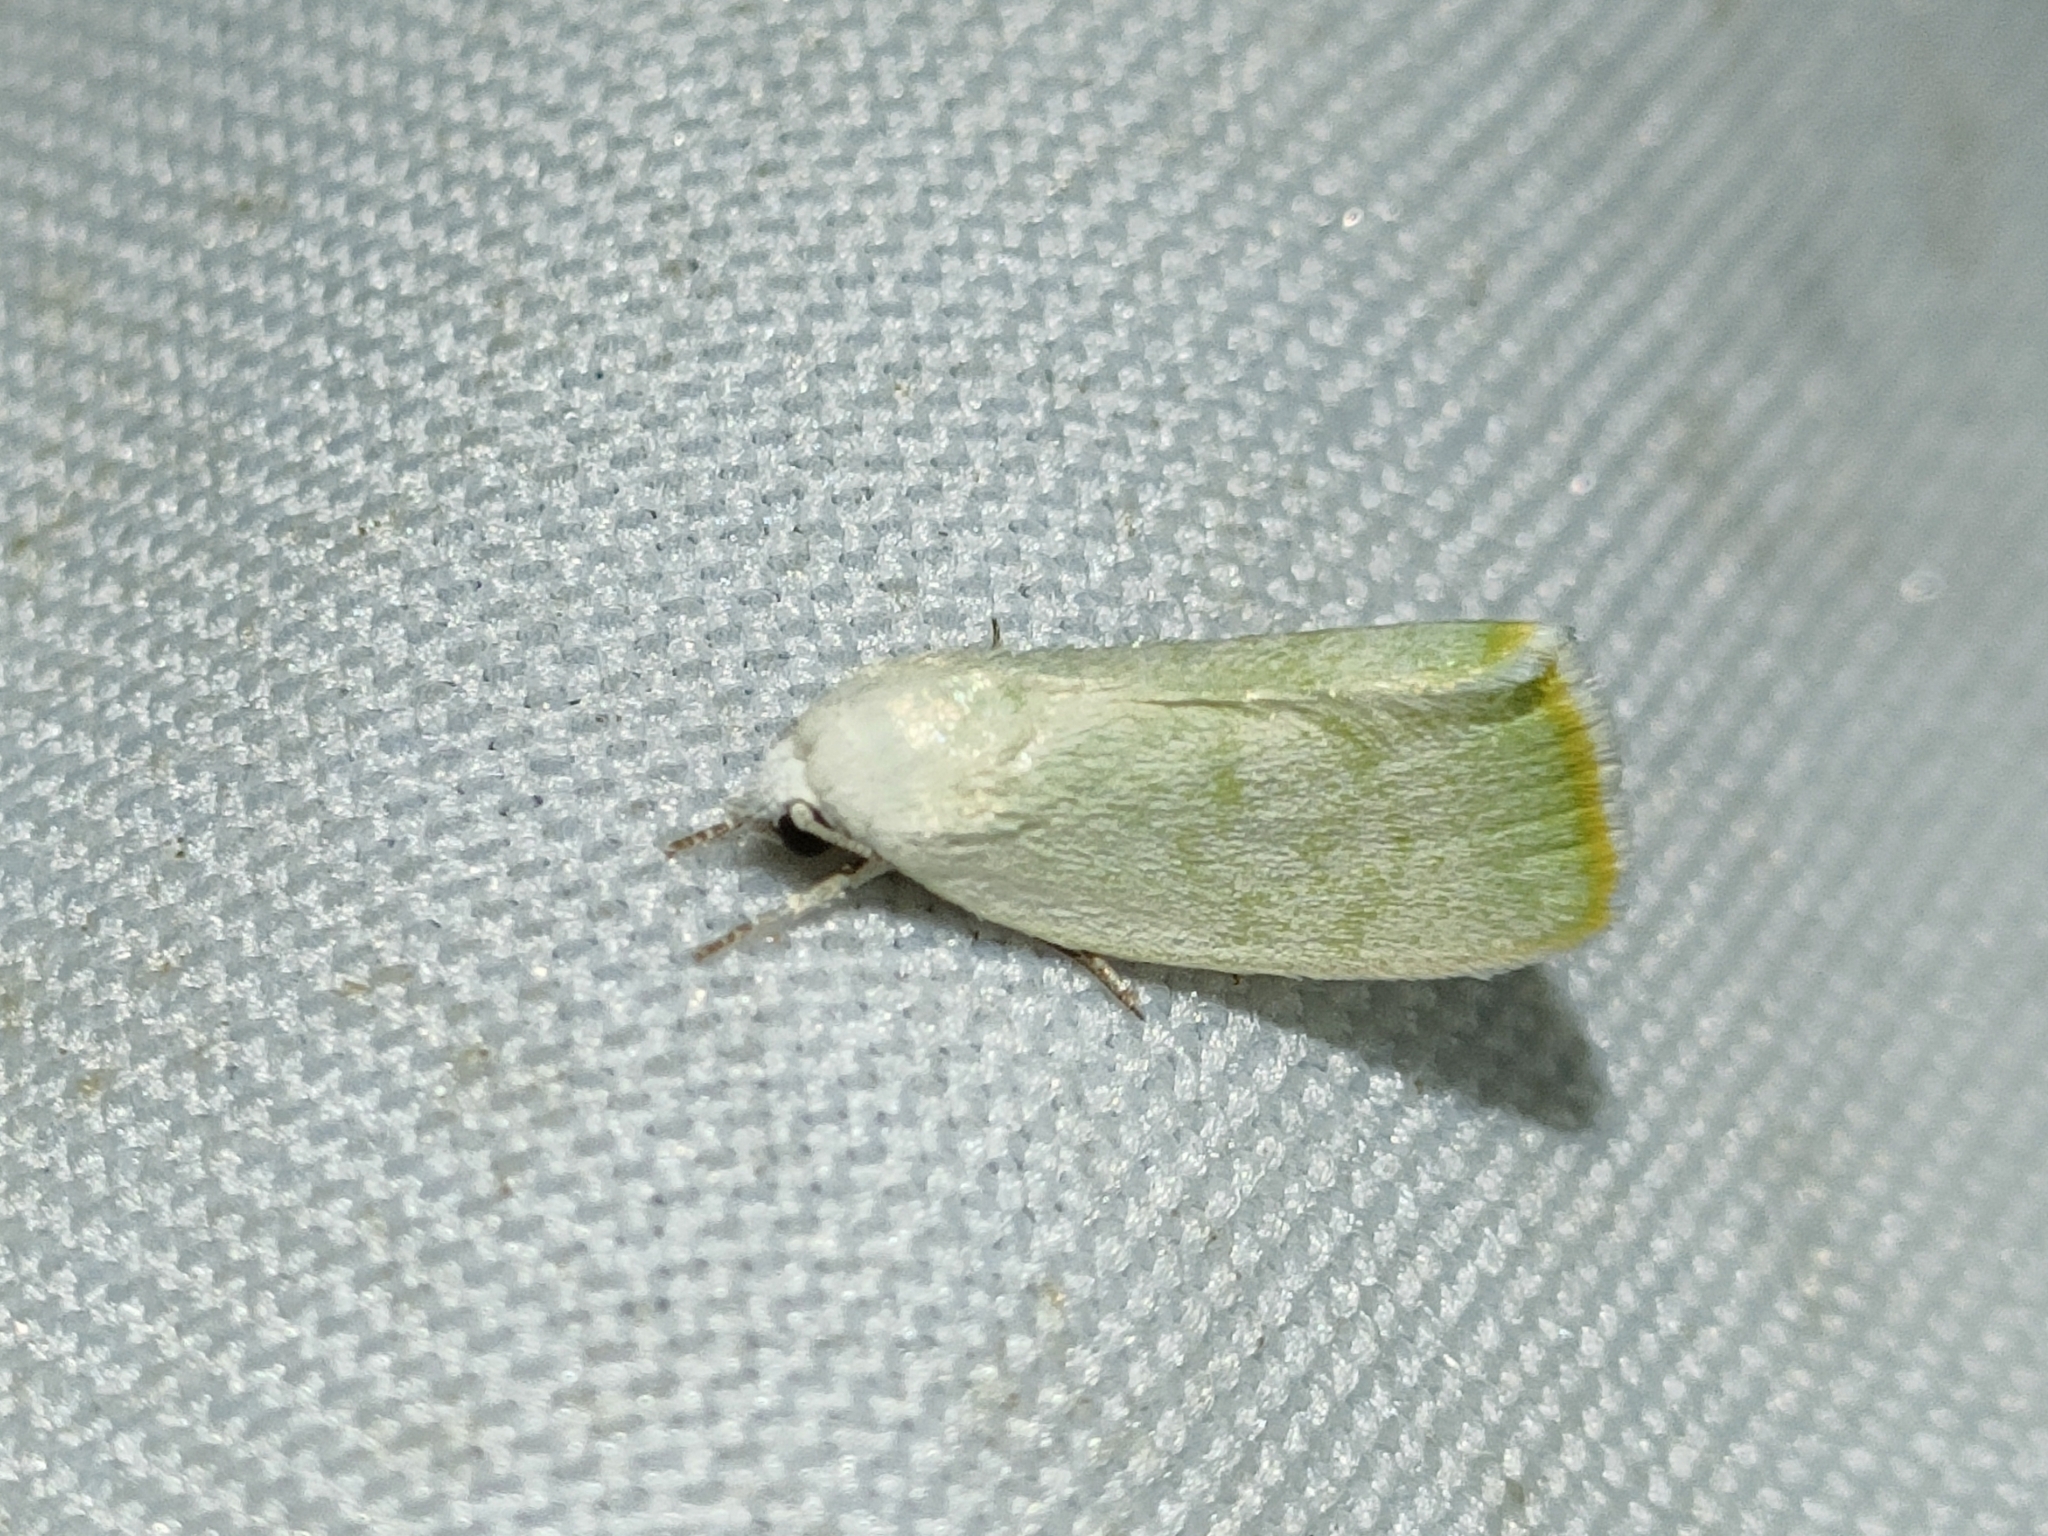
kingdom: Animalia
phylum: Arthropoda
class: Insecta
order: Lepidoptera
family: Nolidae
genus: Earias
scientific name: Earias vernana
